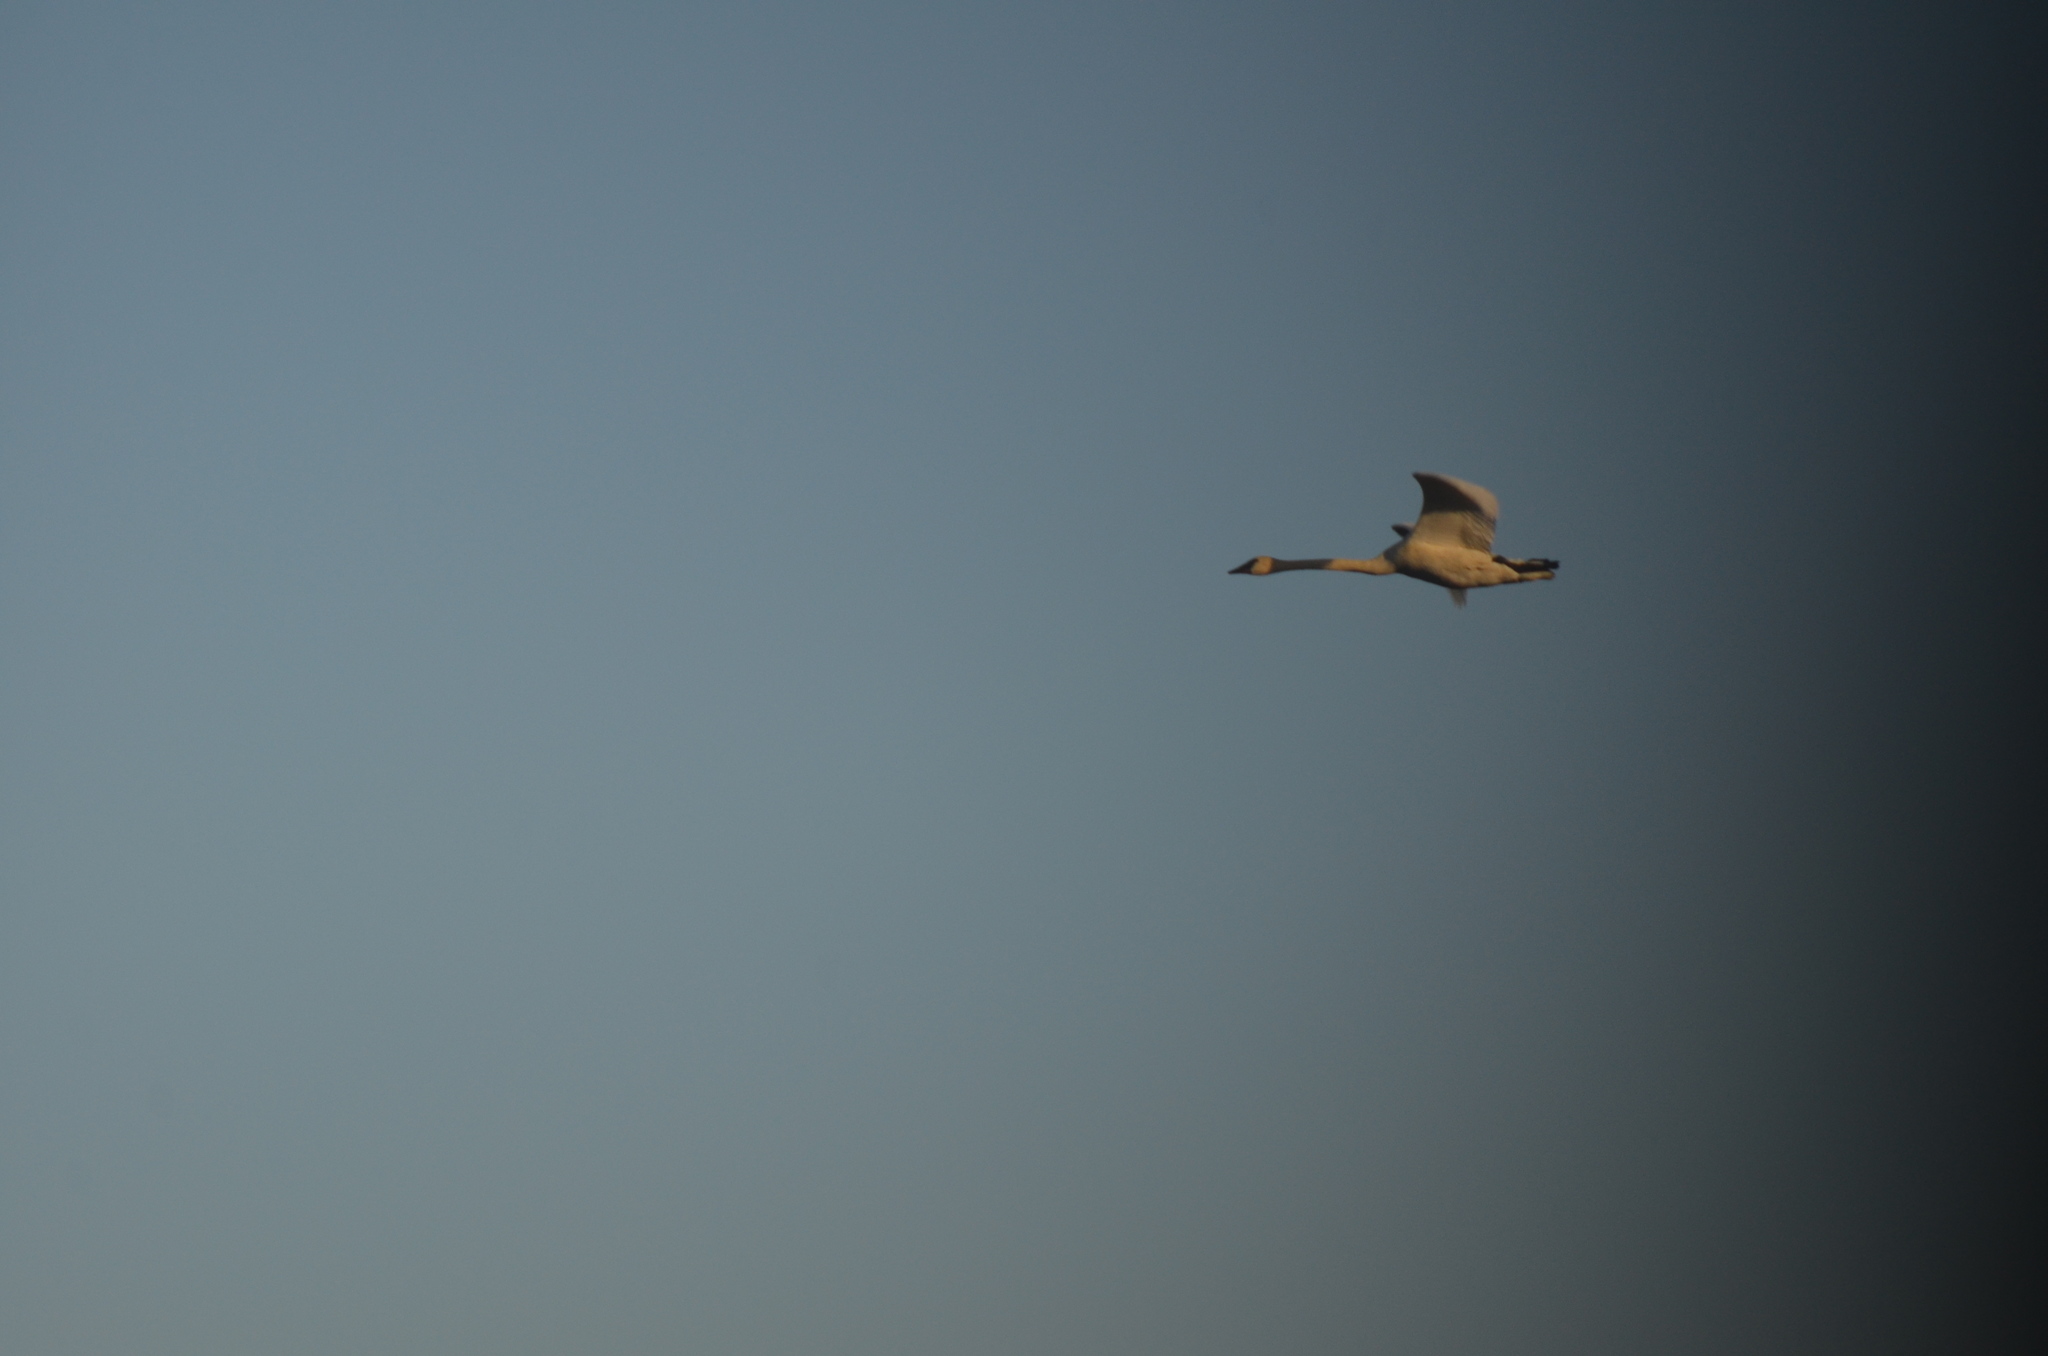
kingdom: Animalia
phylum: Chordata
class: Aves
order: Anseriformes
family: Anatidae
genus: Cygnus
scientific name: Cygnus buccinator
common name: Trumpeter swan
